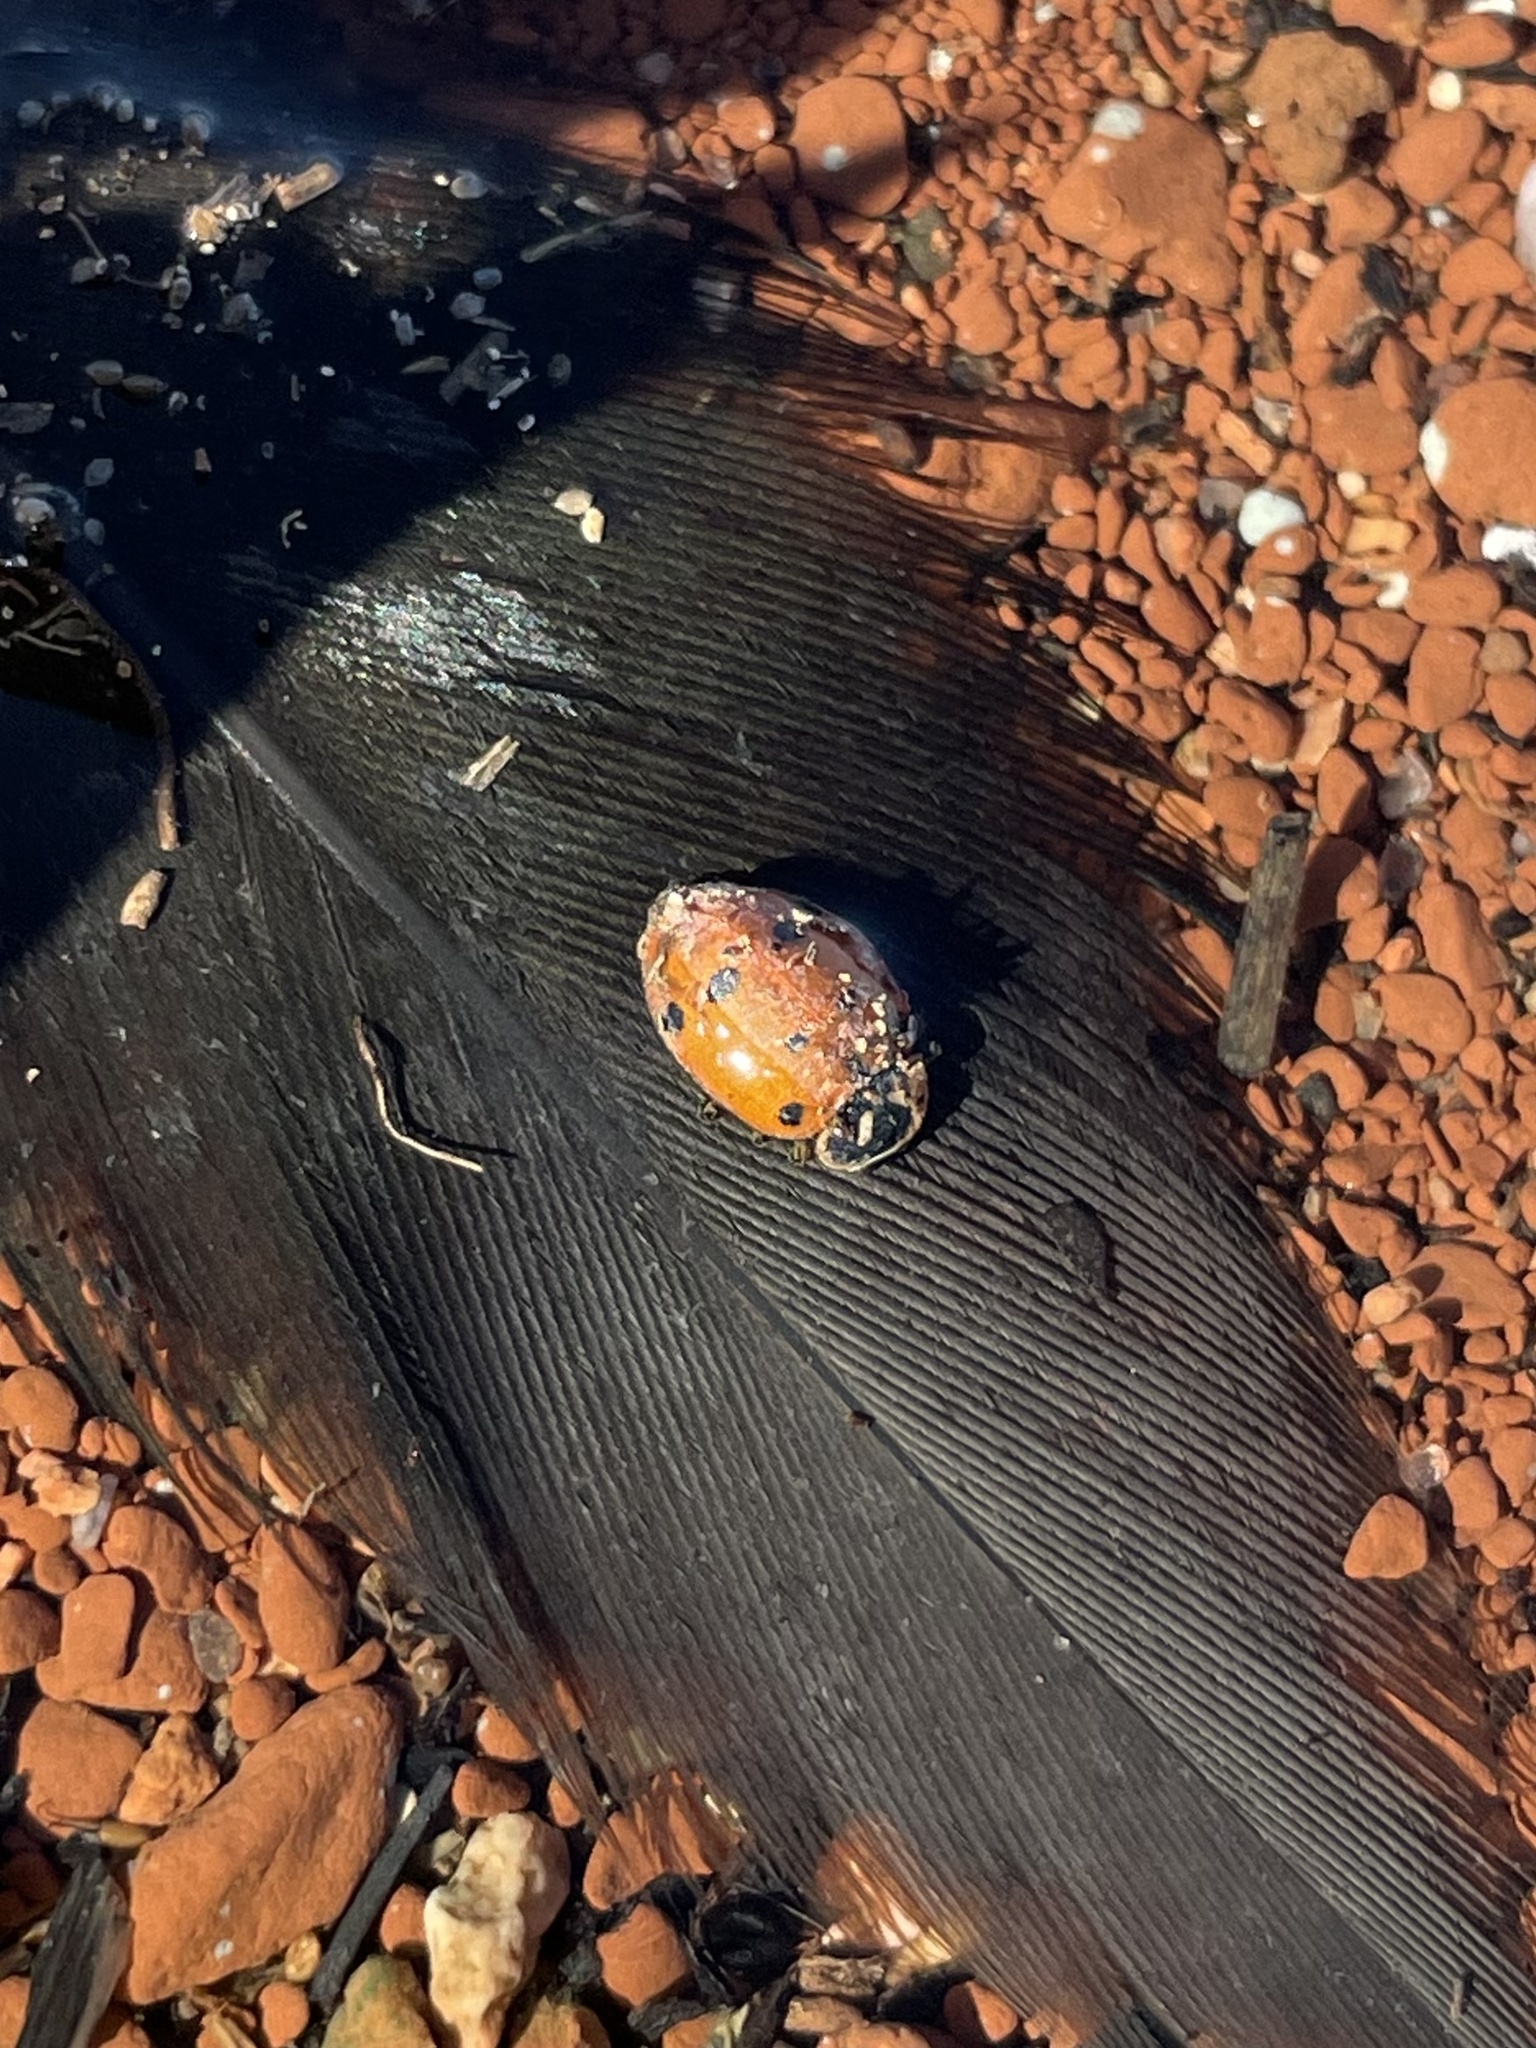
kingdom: Animalia
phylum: Arthropoda
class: Insecta
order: Coleoptera
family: Coccinellidae
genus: Hippodamia
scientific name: Hippodamia convergens
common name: Convergent lady beetle
